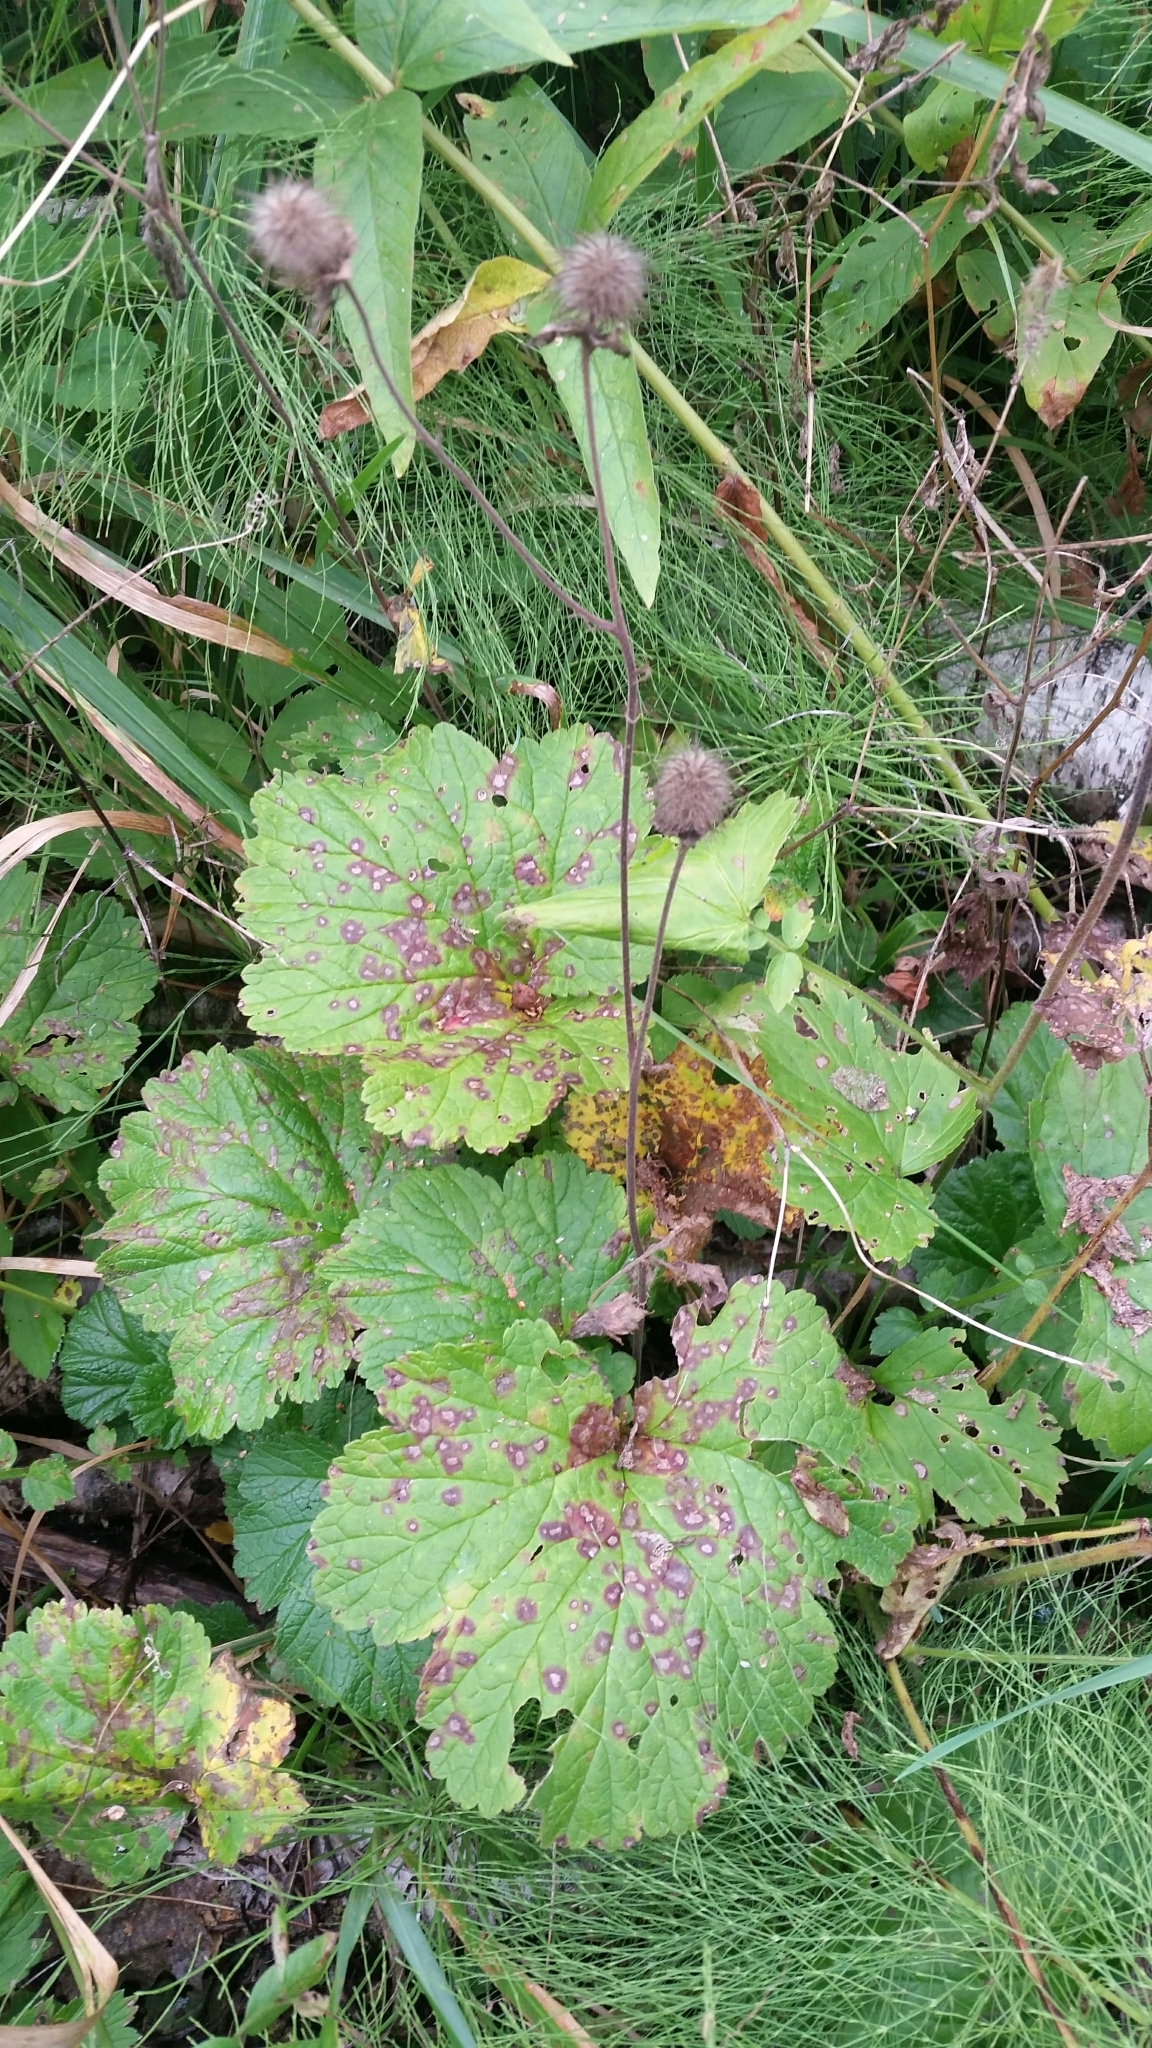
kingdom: Plantae
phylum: Tracheophyta
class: Magnoliopsida
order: Rosales
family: Rosaceae
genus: Geum
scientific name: Geum rivale
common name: Water avens
